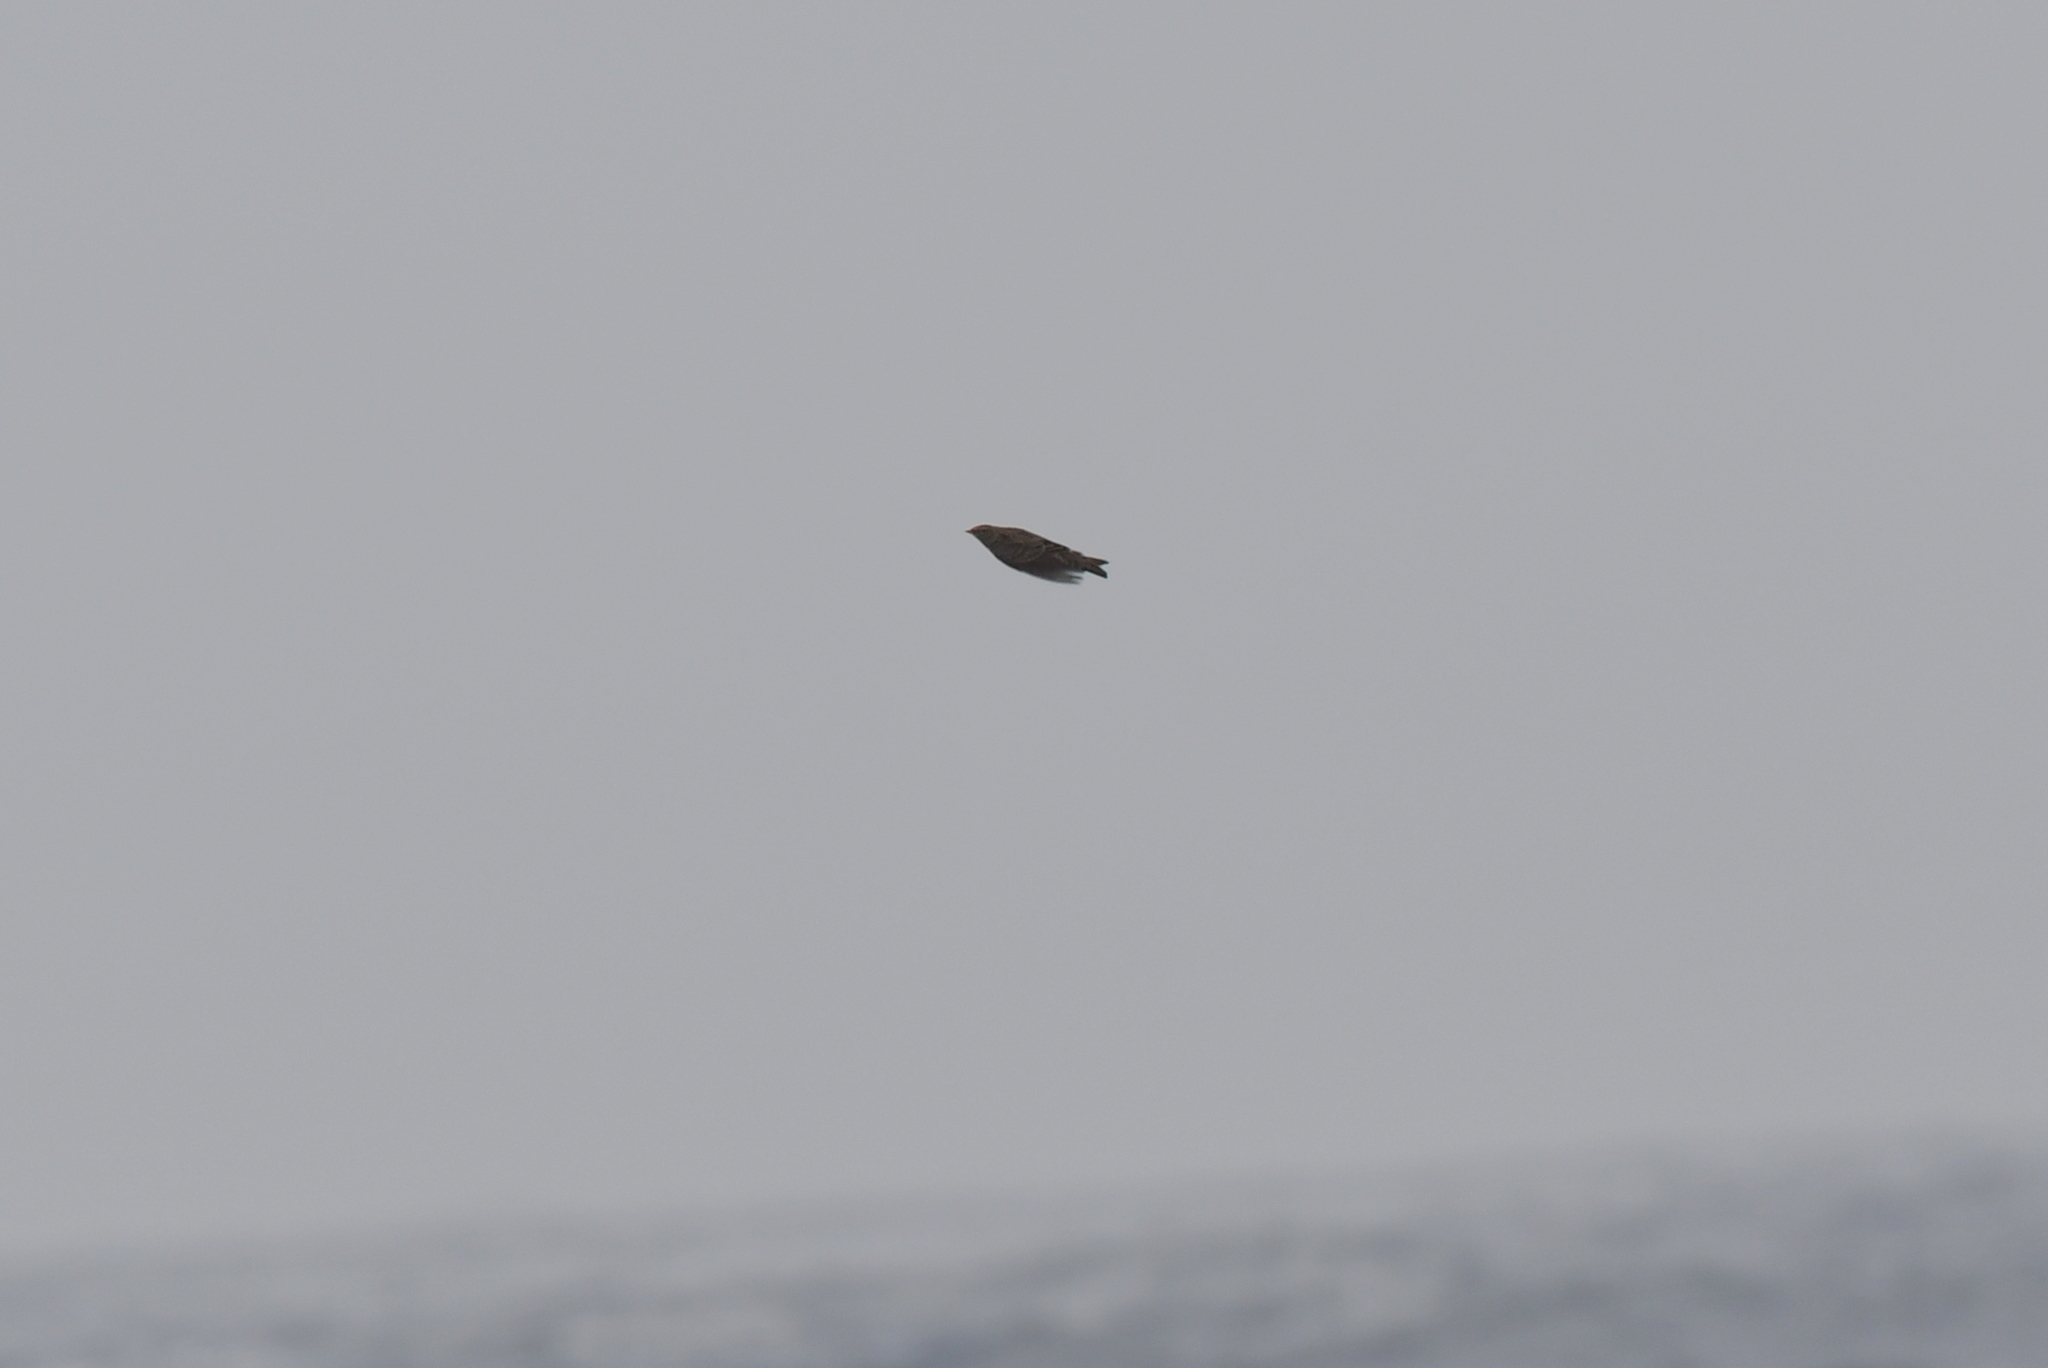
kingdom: Animalia
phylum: Chordata
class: Aves
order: Passeriformes
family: Motacillidae
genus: Anthus
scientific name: Anthus novaeseelandiae
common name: New zealand pipit
